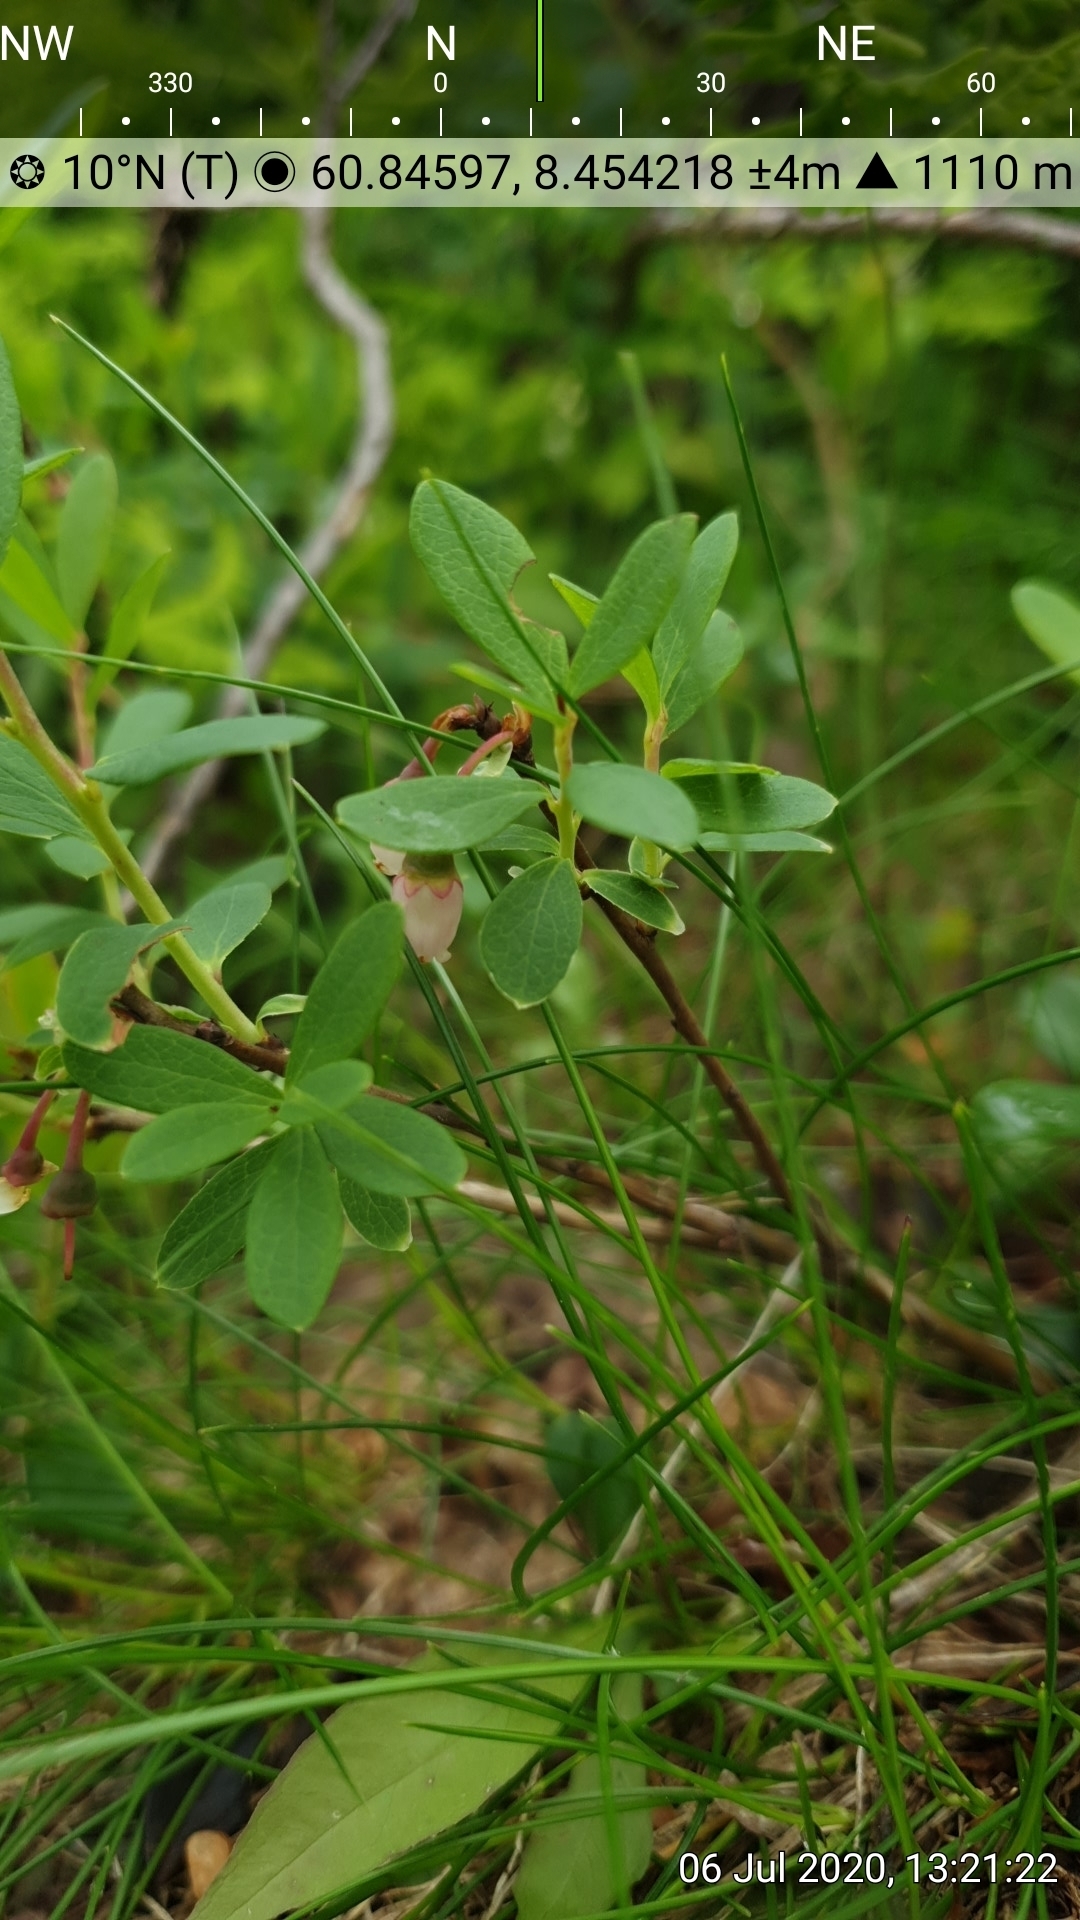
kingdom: Plantae
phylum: Tracheophyta
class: Magnoliopsida
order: Ericales
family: Ericaceae
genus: Vaccinium
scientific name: Vaccinium uliginosum
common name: Bog bilberry
